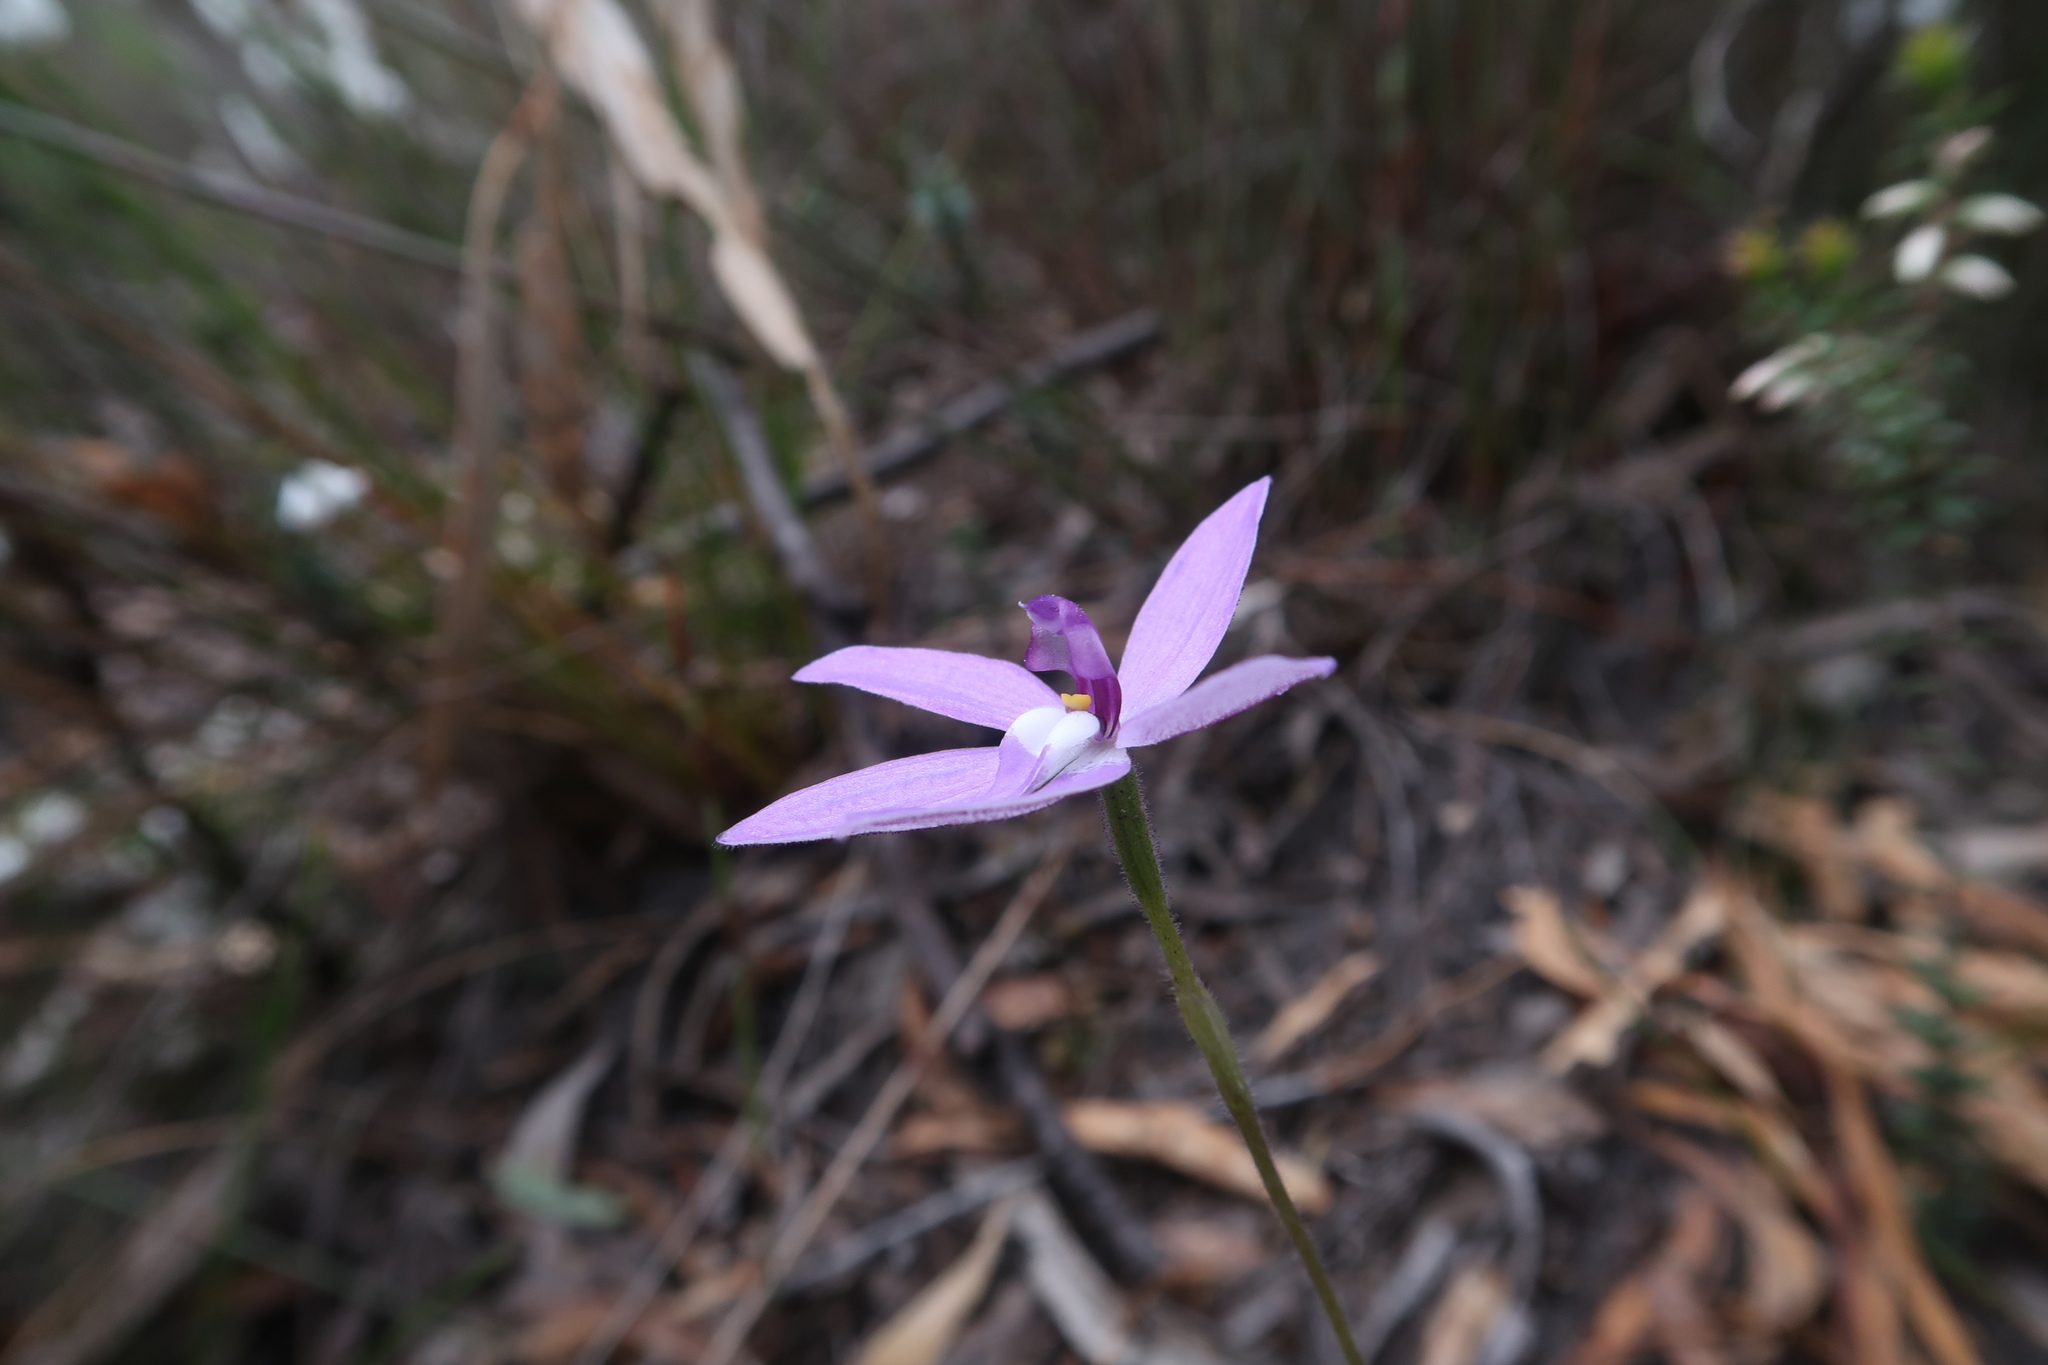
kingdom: Plantae
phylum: Tracheophyta
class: Liliopsida
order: Asparagales
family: Orchidaceae
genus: Caladenia
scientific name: Caladenia major
